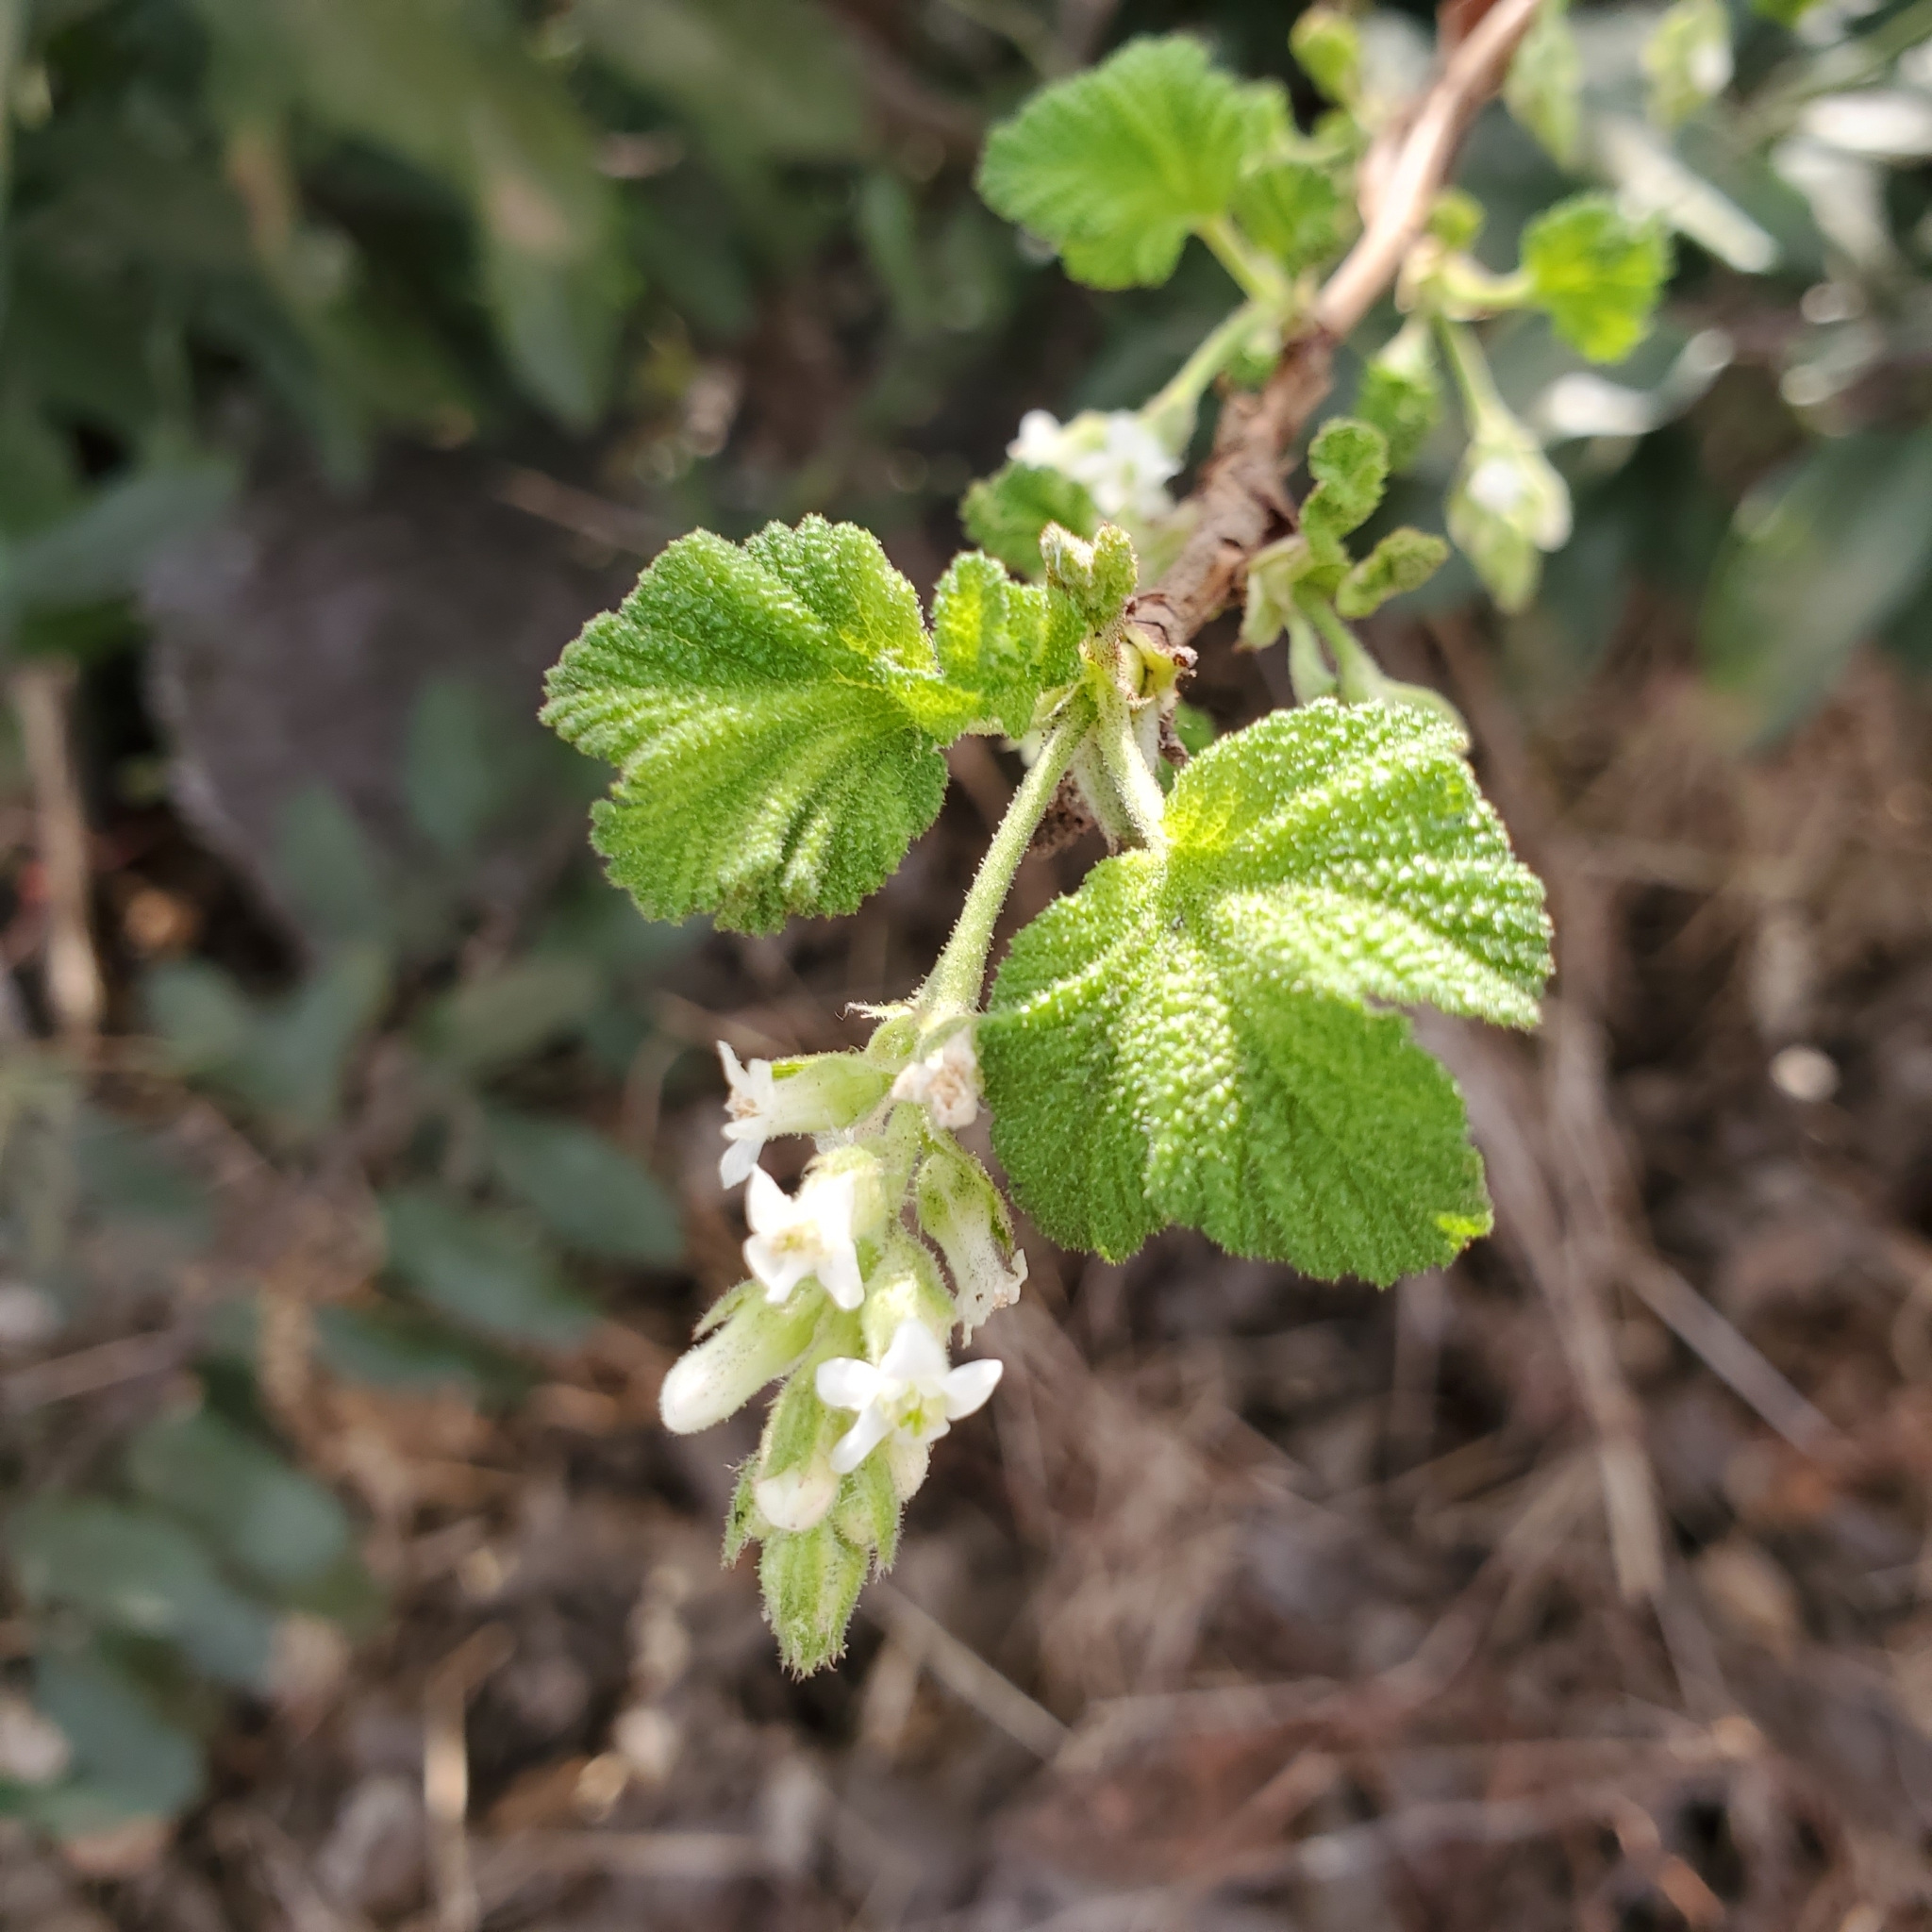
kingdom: Plantae
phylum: Tracheophyta
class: Magnoliopsida
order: Saxifragales
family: Grossulariaceae
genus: Ribes
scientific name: Ribes indecorum
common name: White-flower currant
